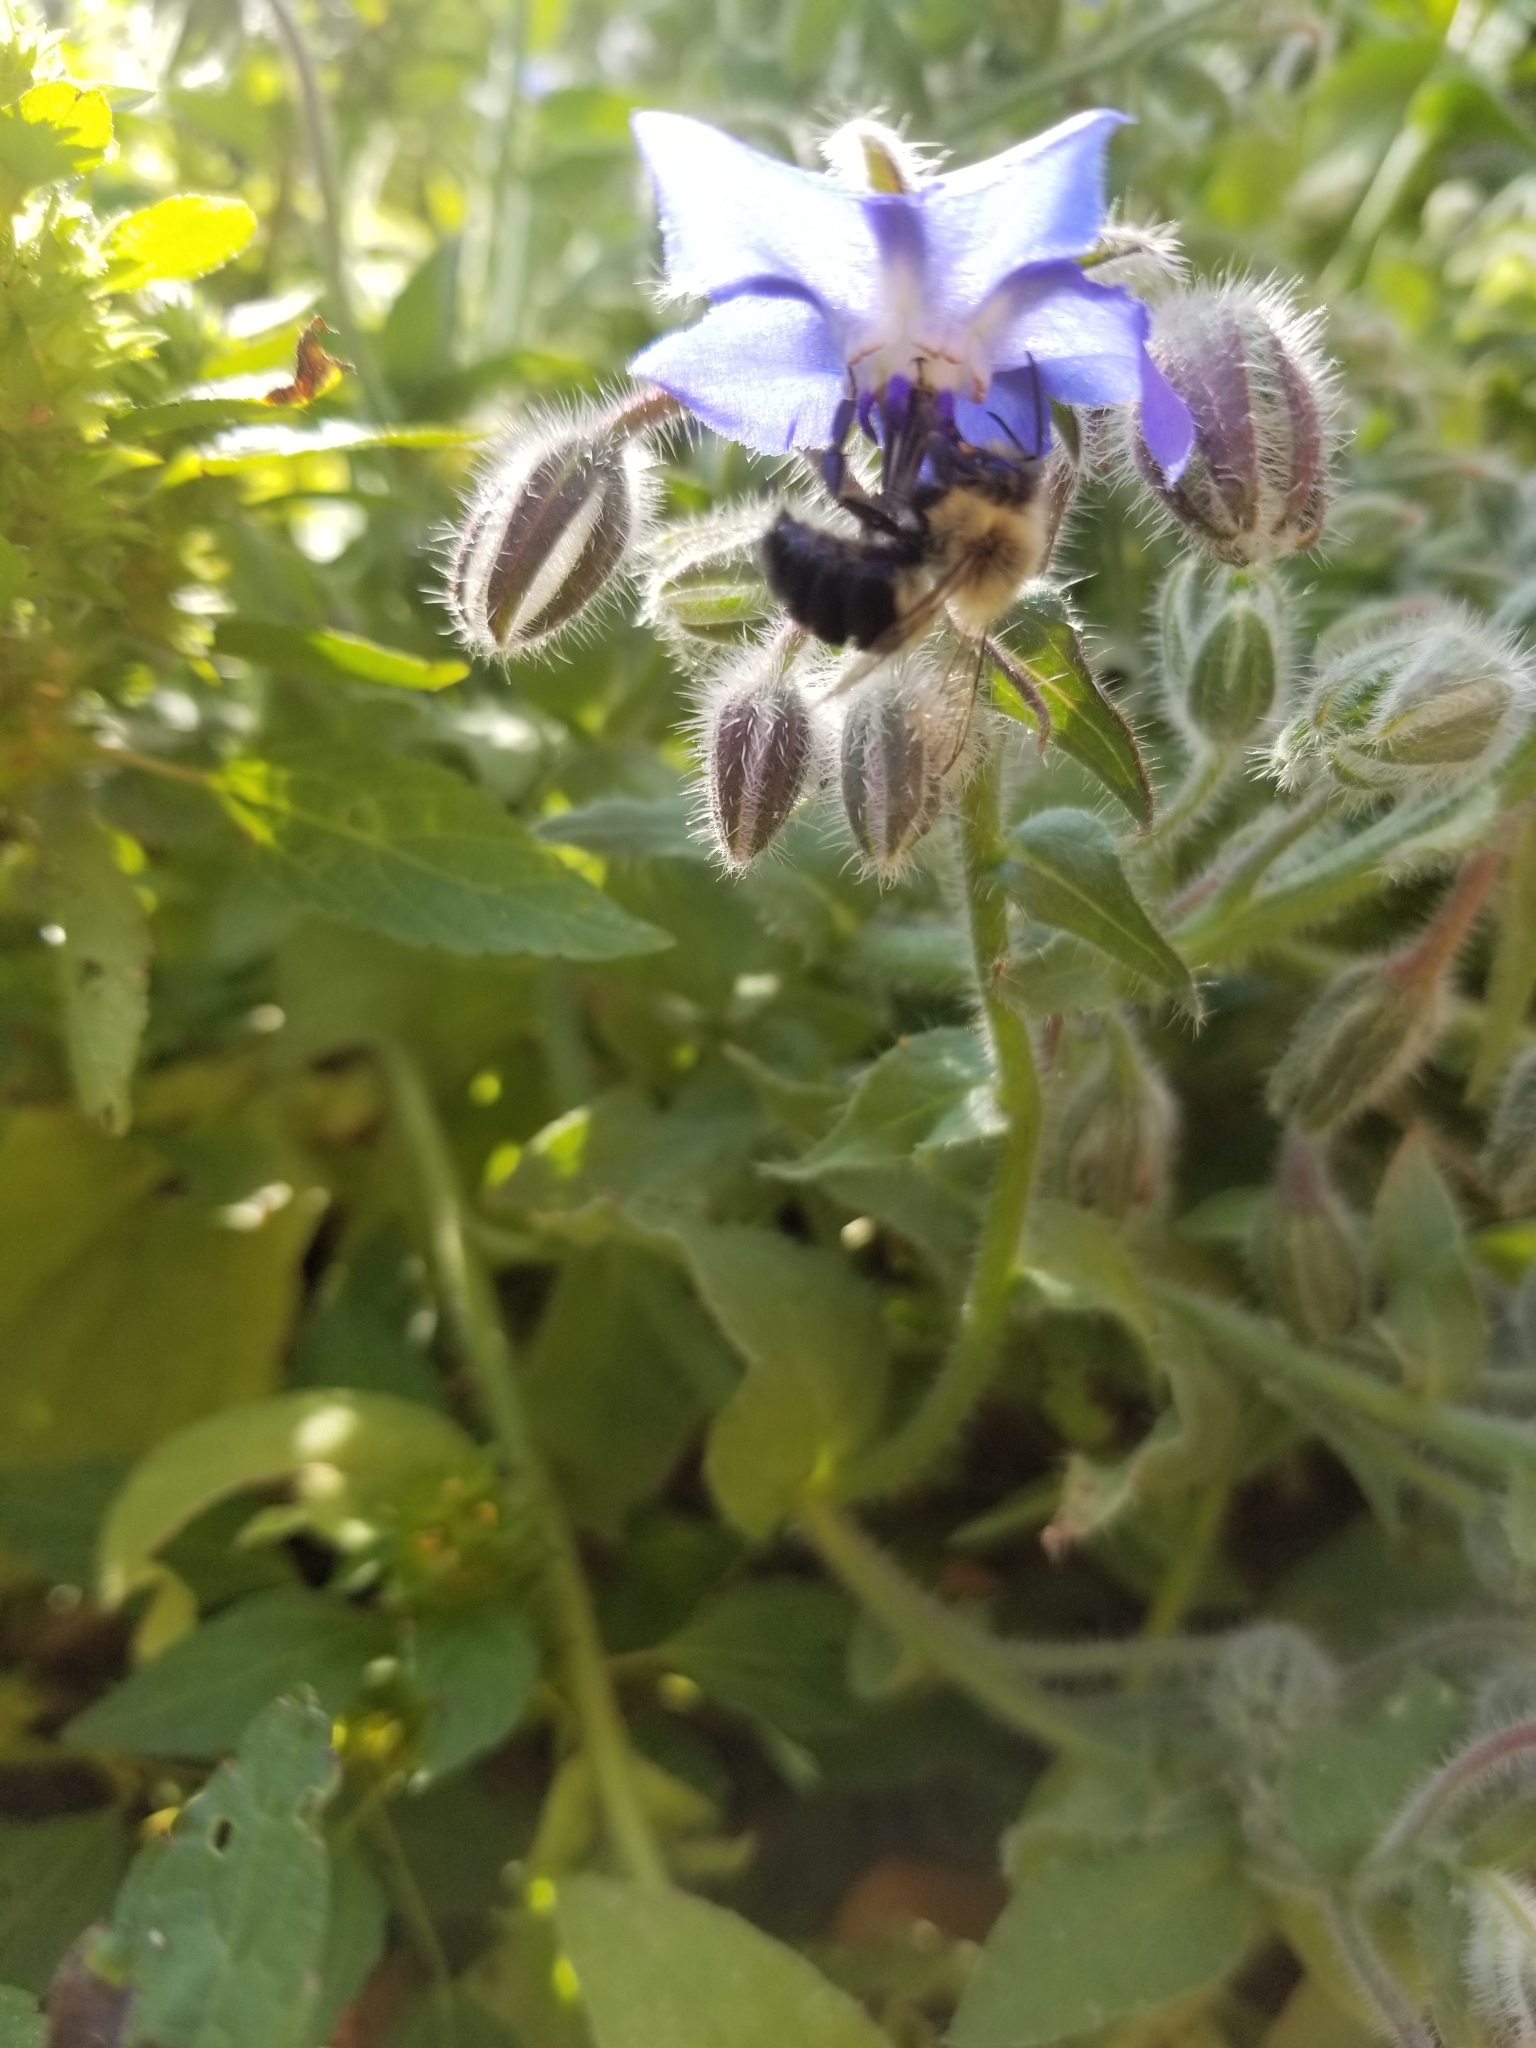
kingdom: Animalia
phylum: Arthropoda
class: Insecta
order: Hymenoptera
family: Apidae
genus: Bombus
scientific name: Bombus impatiens
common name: Common eastern bumble bee
